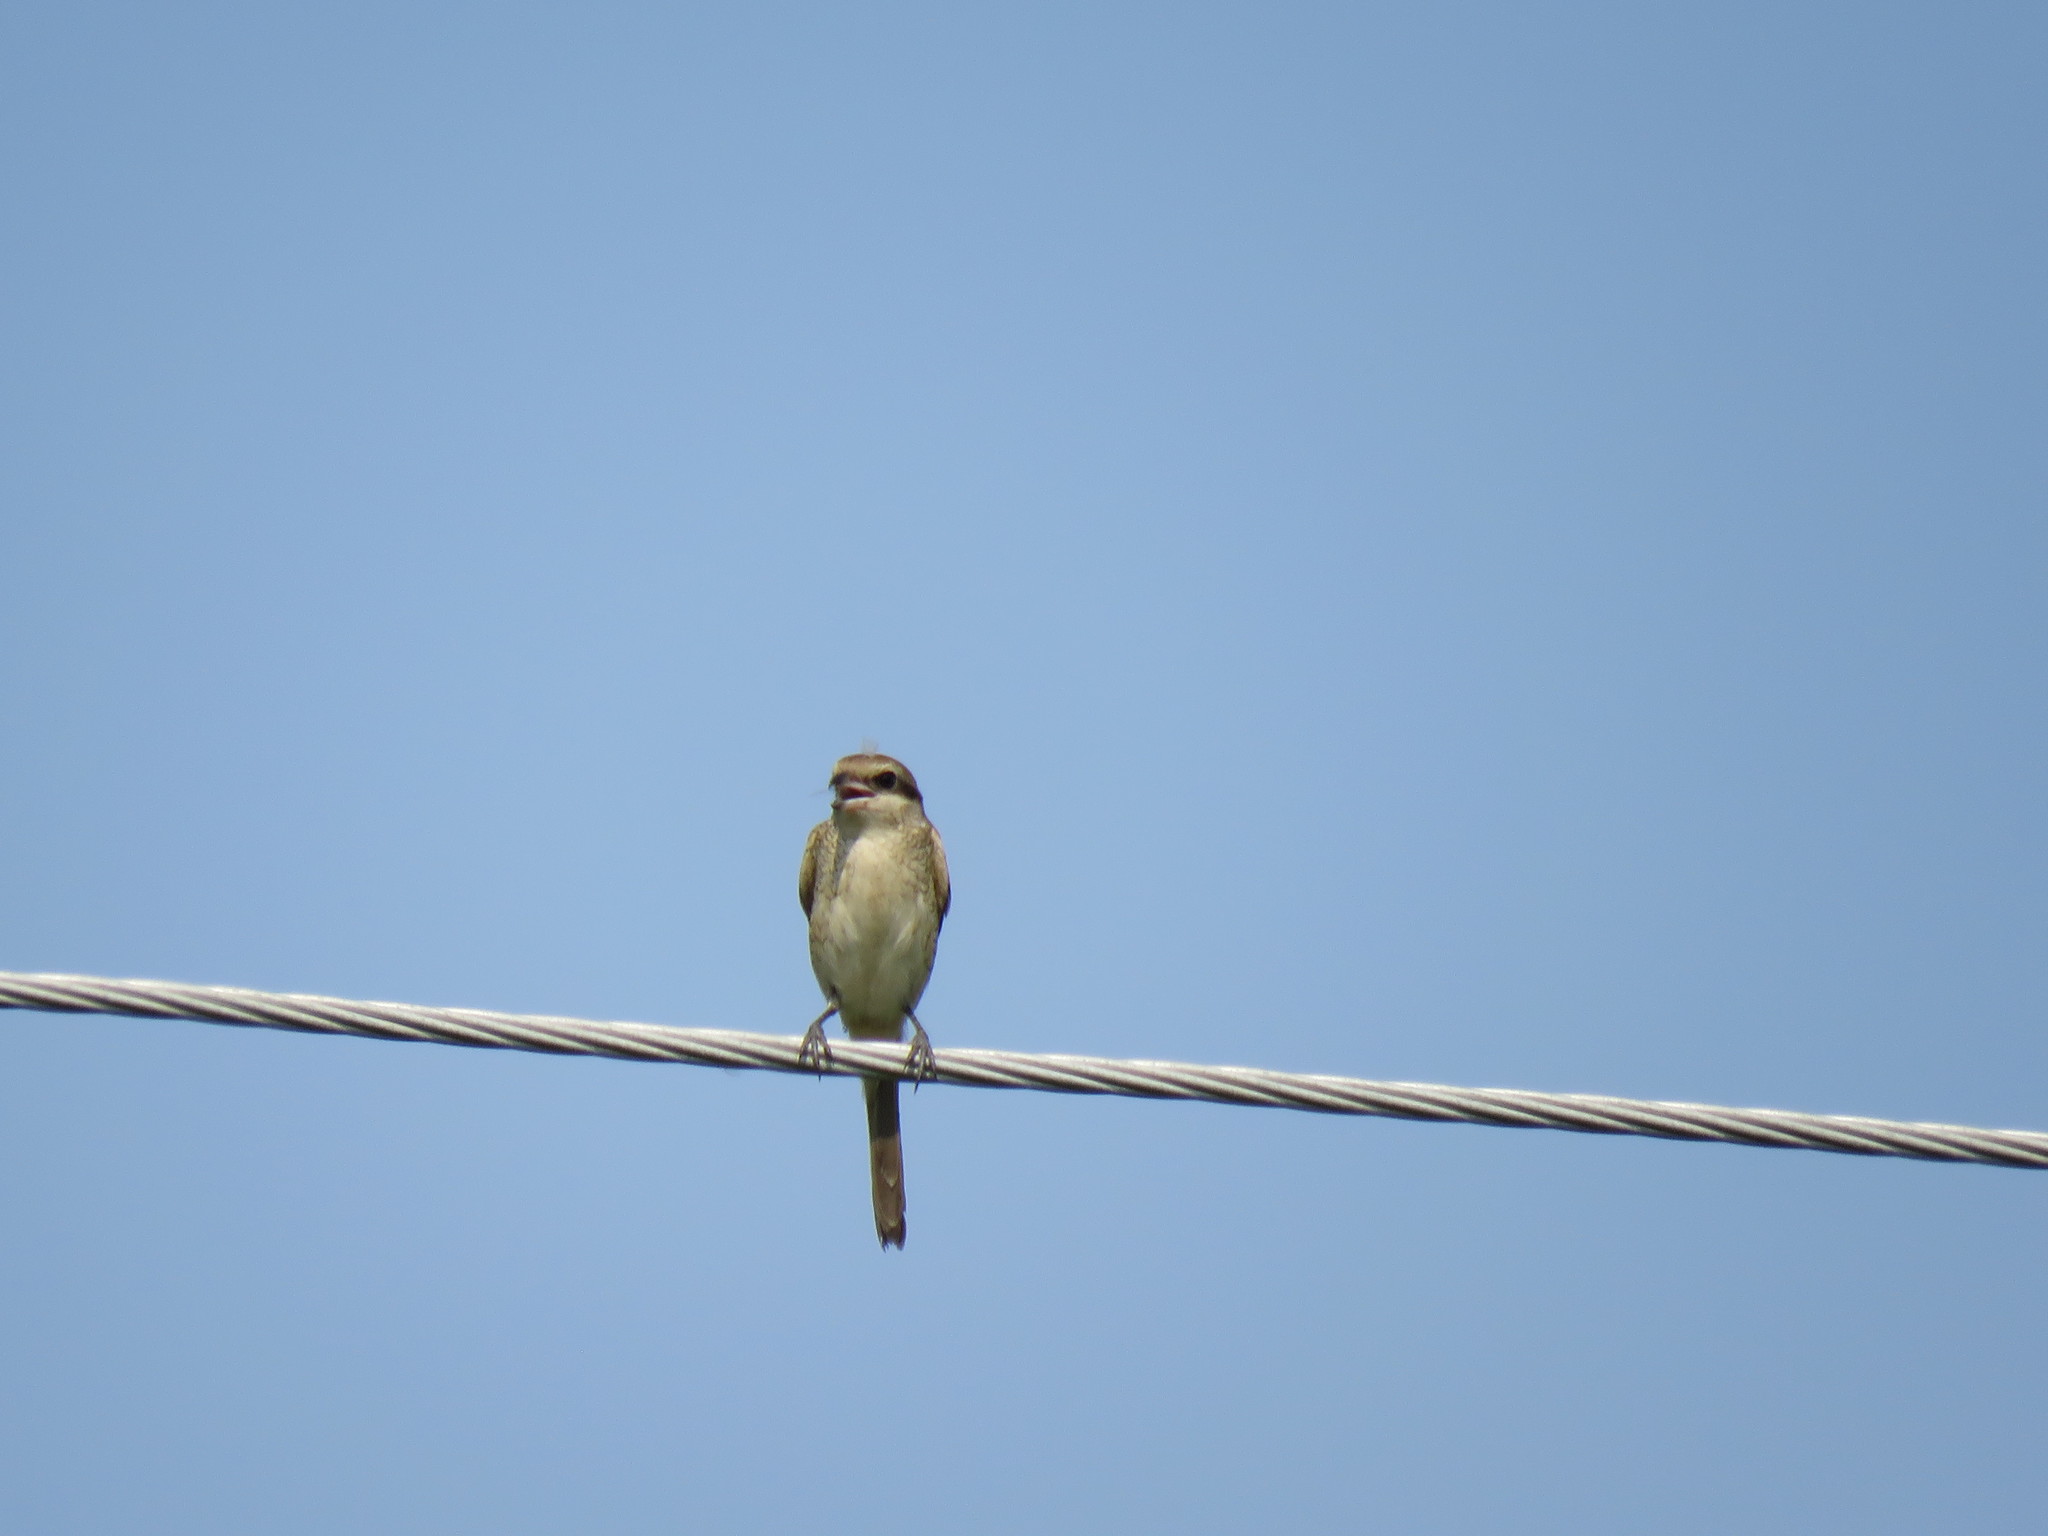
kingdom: Animalia
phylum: Chordata
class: Aves
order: Passeriformes
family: Laniidae
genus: Lanius
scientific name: Lanius cristatus
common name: Brown shrike
